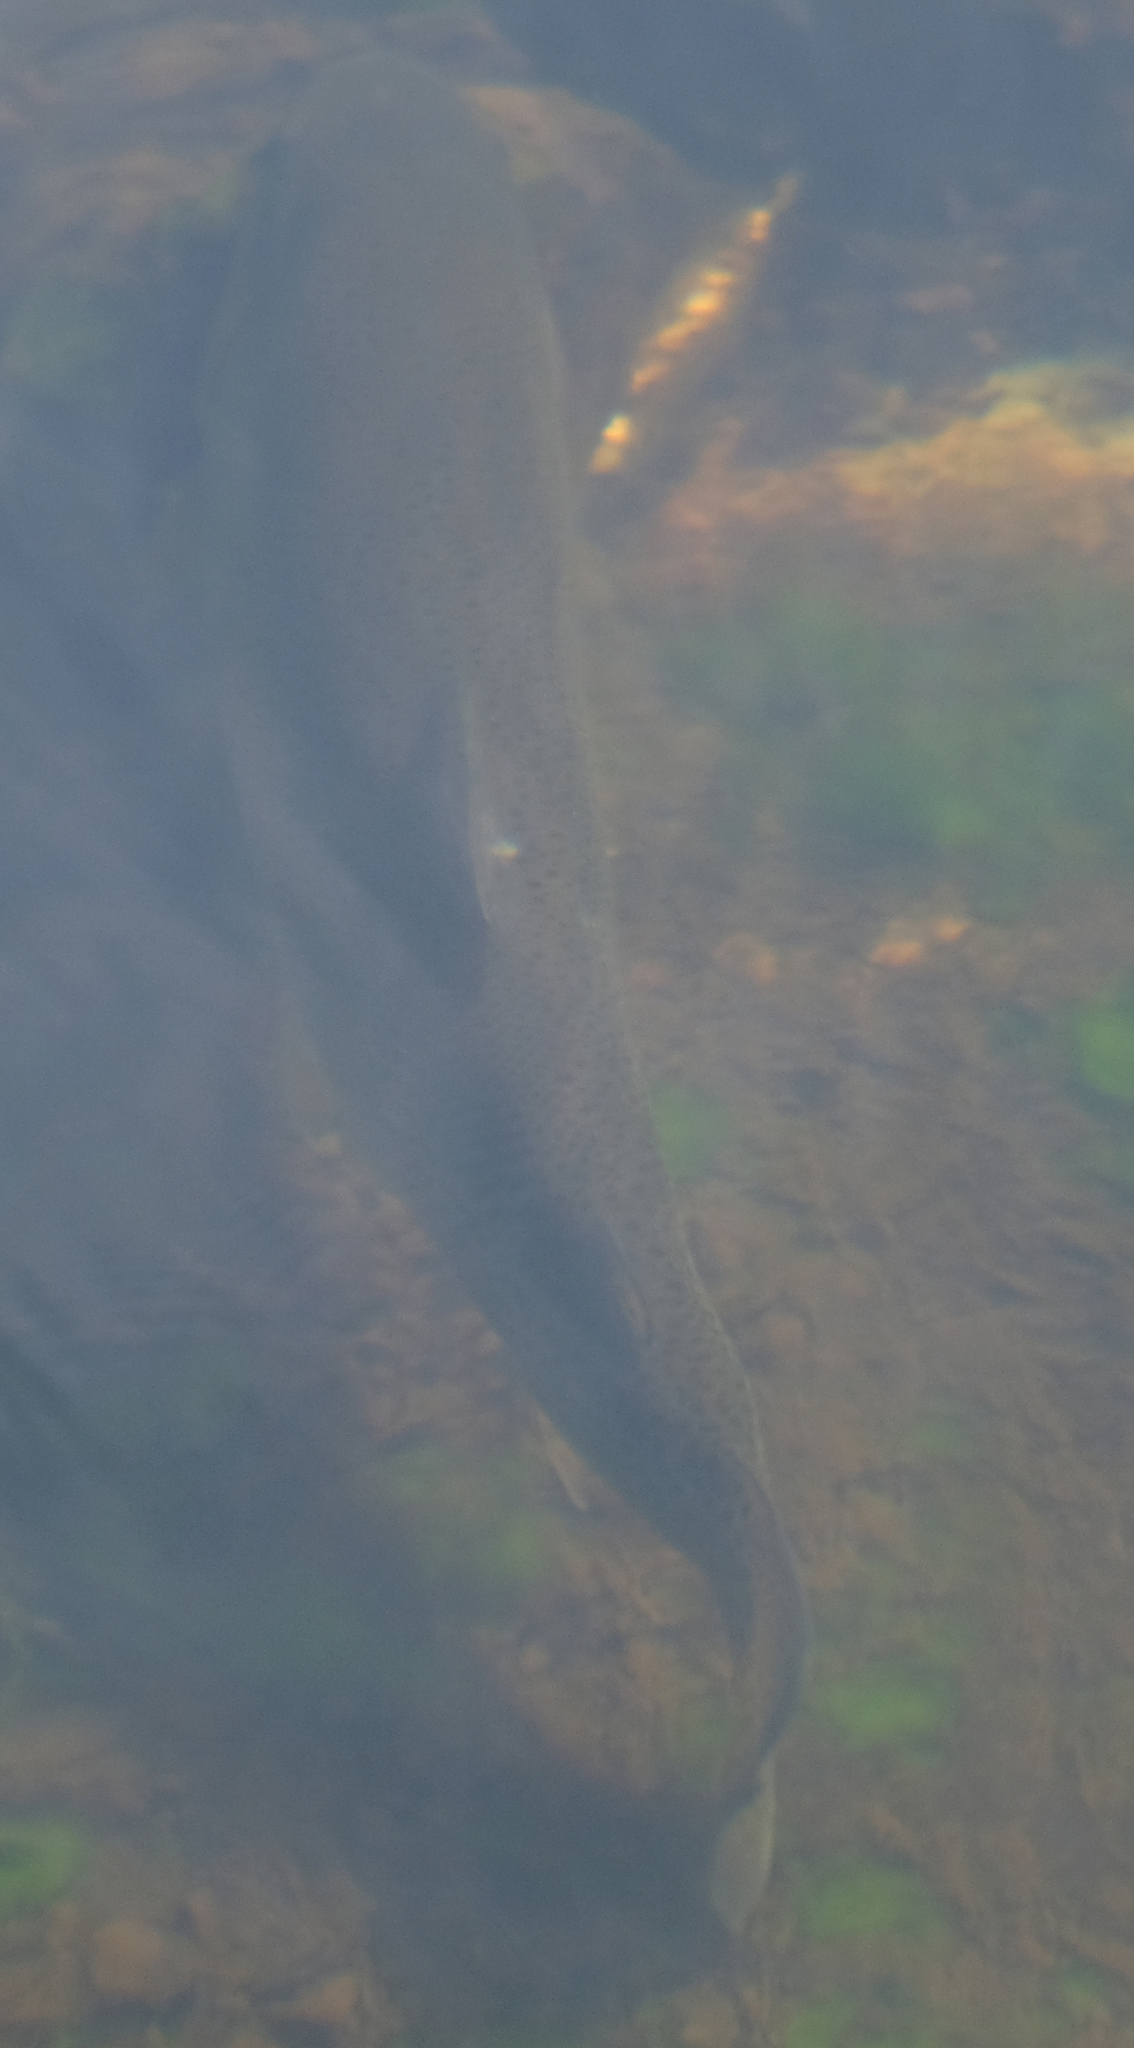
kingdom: Animalia
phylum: Chordata
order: Salmoniformes
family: Salmonidae
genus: Oncorhynchus
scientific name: Oncorhynchus mykiss
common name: Rainbow trout
